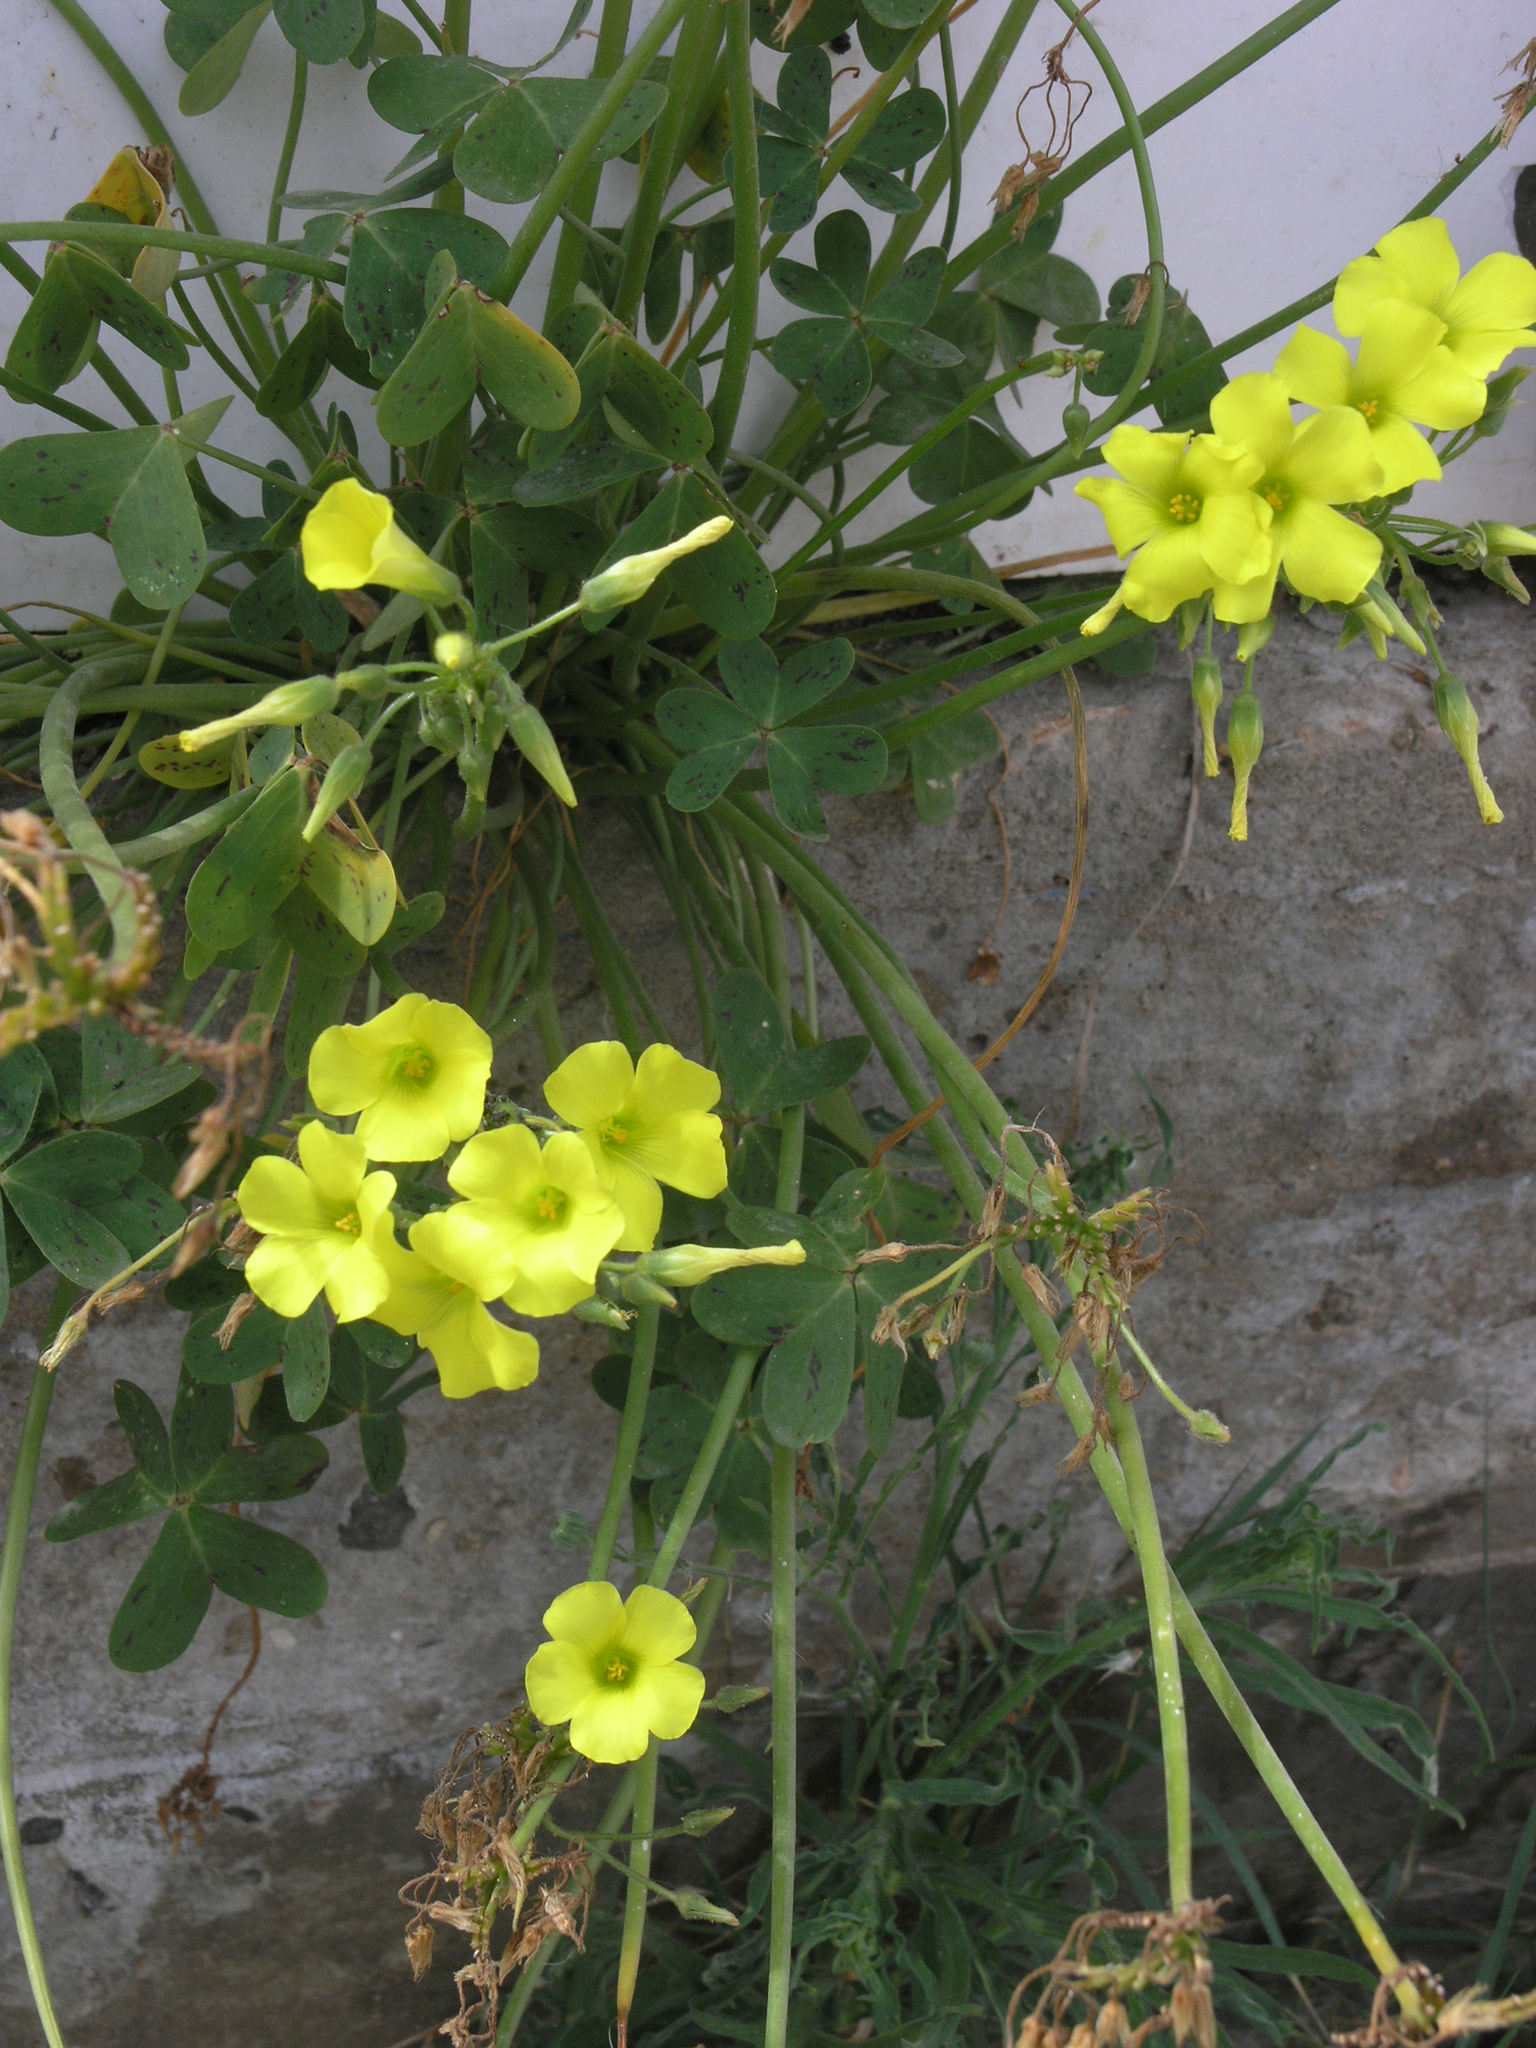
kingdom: Plantae
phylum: Tracheophyta
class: Magnoliopsida
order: Oxalidales
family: Oxalidaceae
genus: Oxalis
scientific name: Oxalis pes-caprae
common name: Bermuda-buttercup
